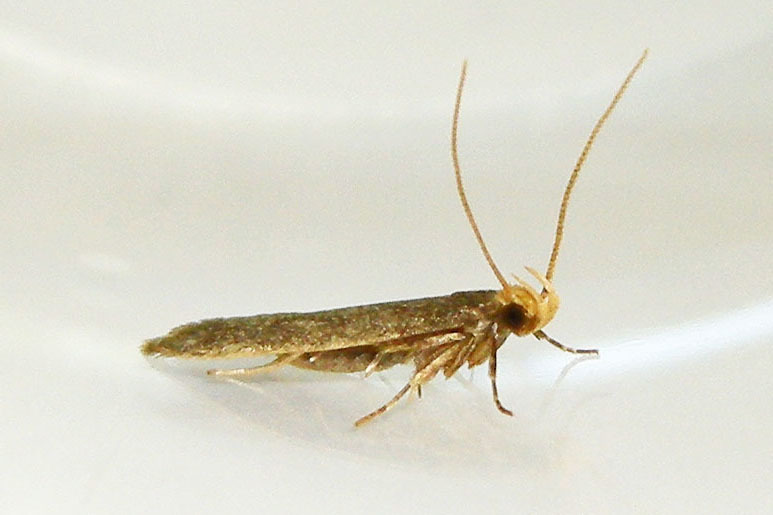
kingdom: Animalia
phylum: Arthropoda
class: Insecta
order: Lepidoptera
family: Autostichidae
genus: Glyphidocera
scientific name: Glyphidocera lithodoxa
